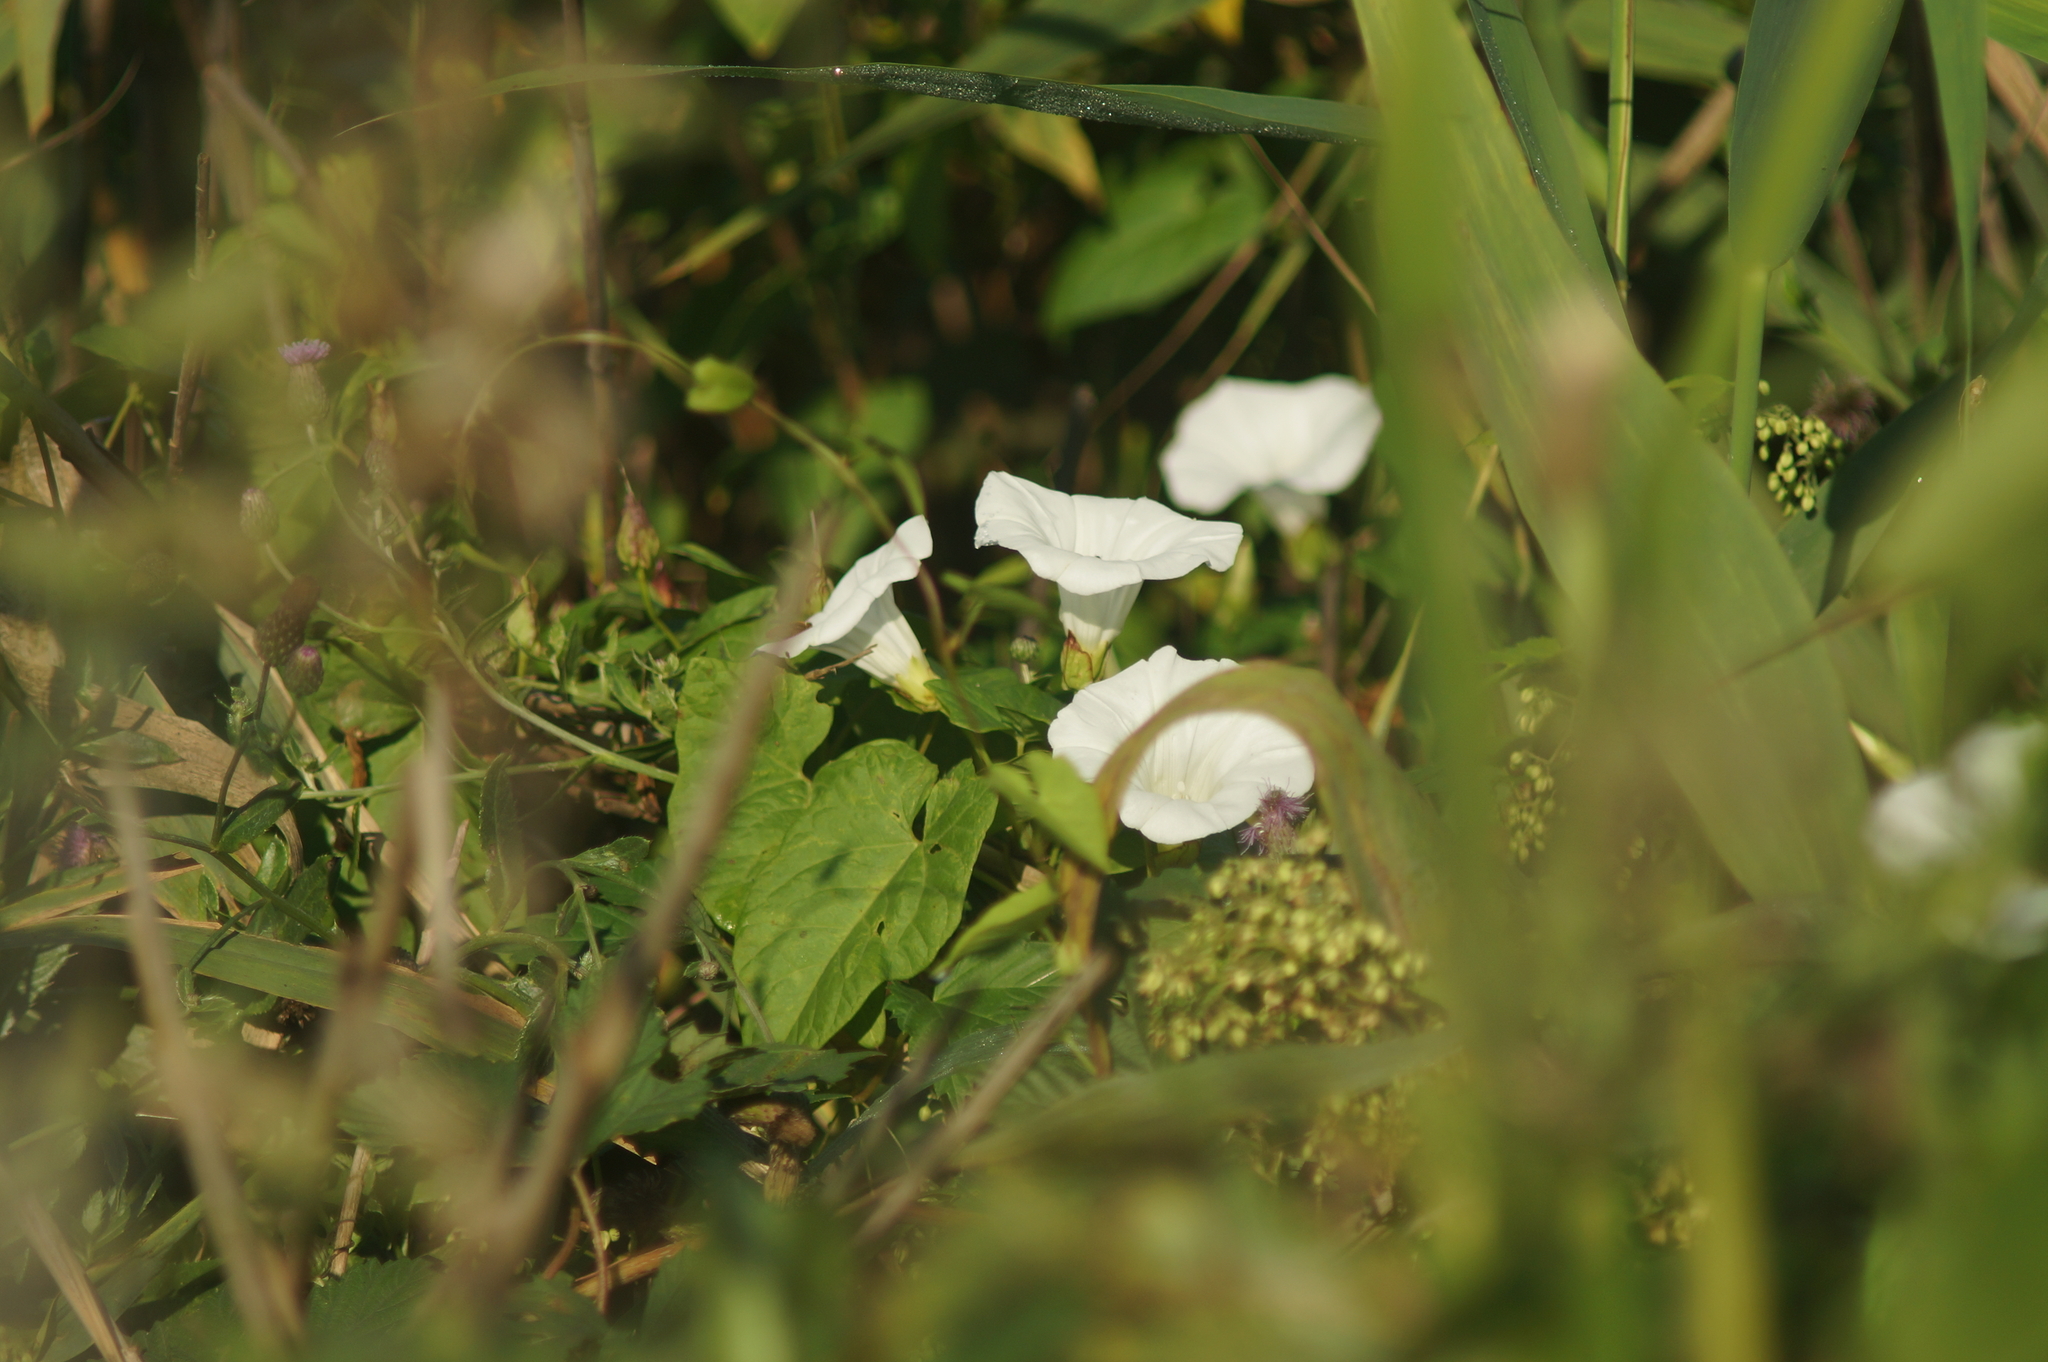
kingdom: Plantae
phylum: Tracheophyta
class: Magnoliopsida
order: Solanales
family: Convolvulaceae
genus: Calystegia
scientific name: Calystegia sepium
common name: Hedge bindweed
